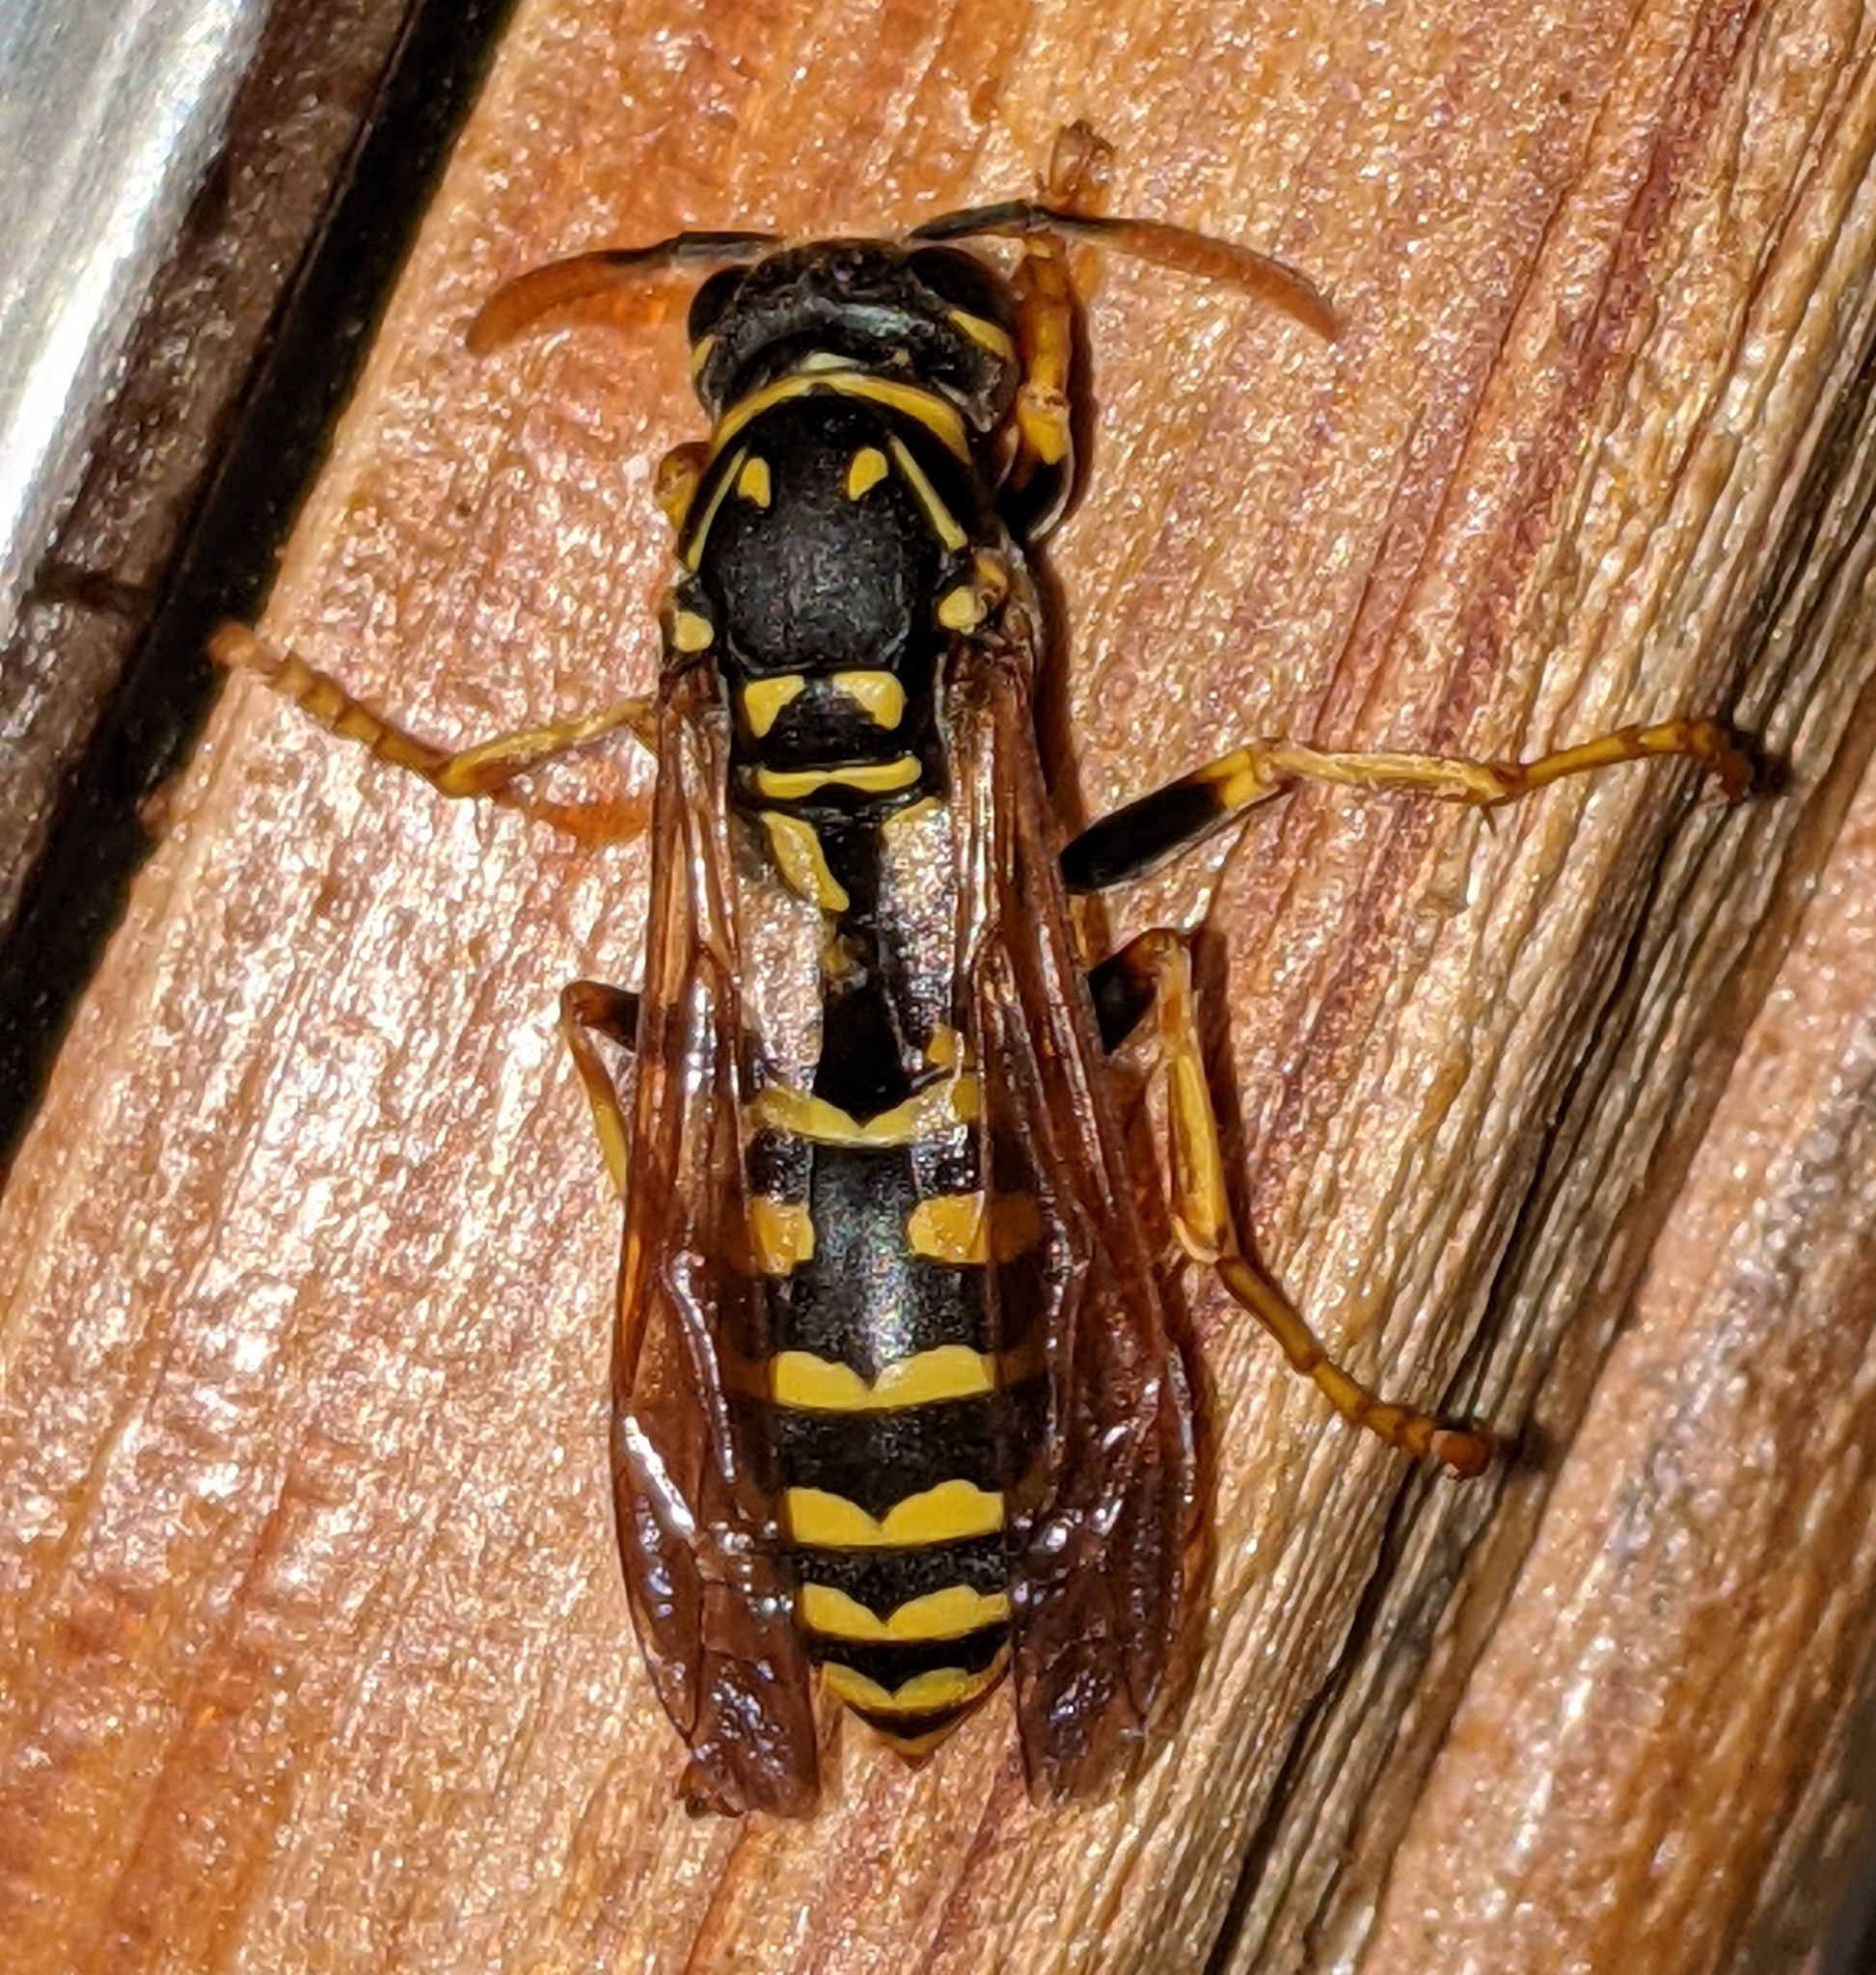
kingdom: Animalia
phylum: Arthropoda
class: Insecta
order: Hymenoptera
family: Eumenidae
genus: Polistes
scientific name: Polistes dominula
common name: Paper wasp
